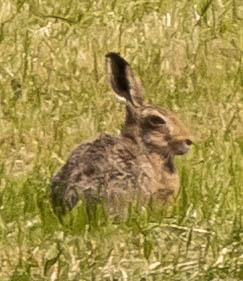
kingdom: Animalia
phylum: Chordata
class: Mammalia
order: Lagomorpha
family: Leporidae
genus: Lepus
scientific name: Lepus europaeus
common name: European hare
